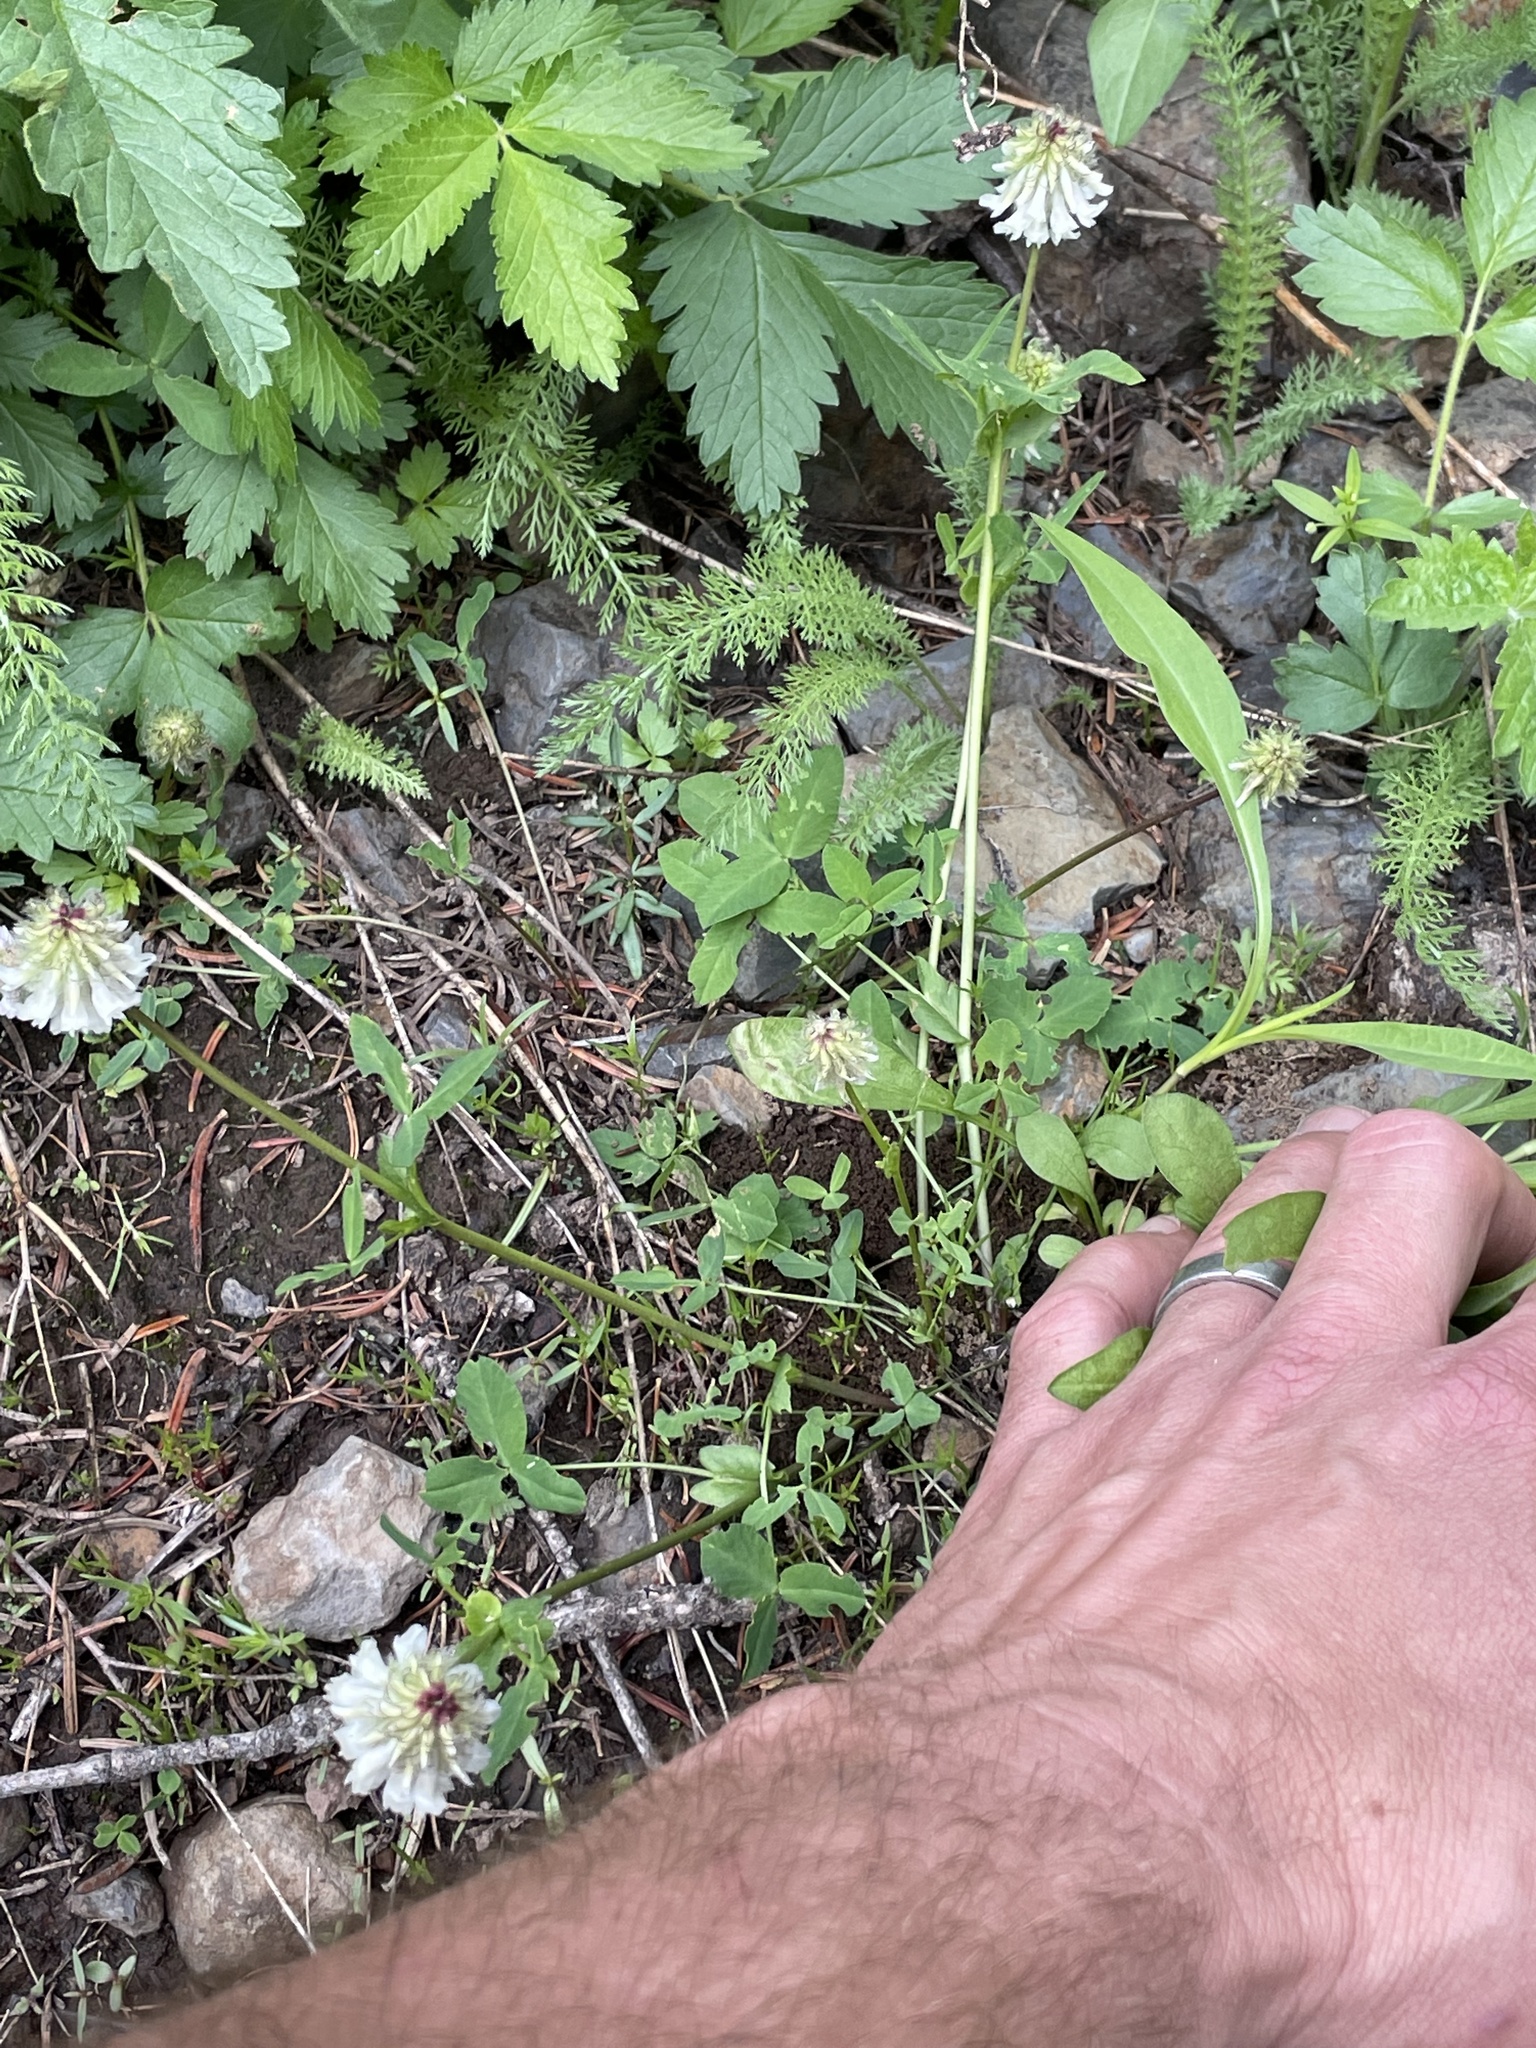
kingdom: Plantae
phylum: Tracheophyta
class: Magnoliopsida
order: Fabales
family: Fabaceae
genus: Trifolium
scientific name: Trifolium eriocephalum
